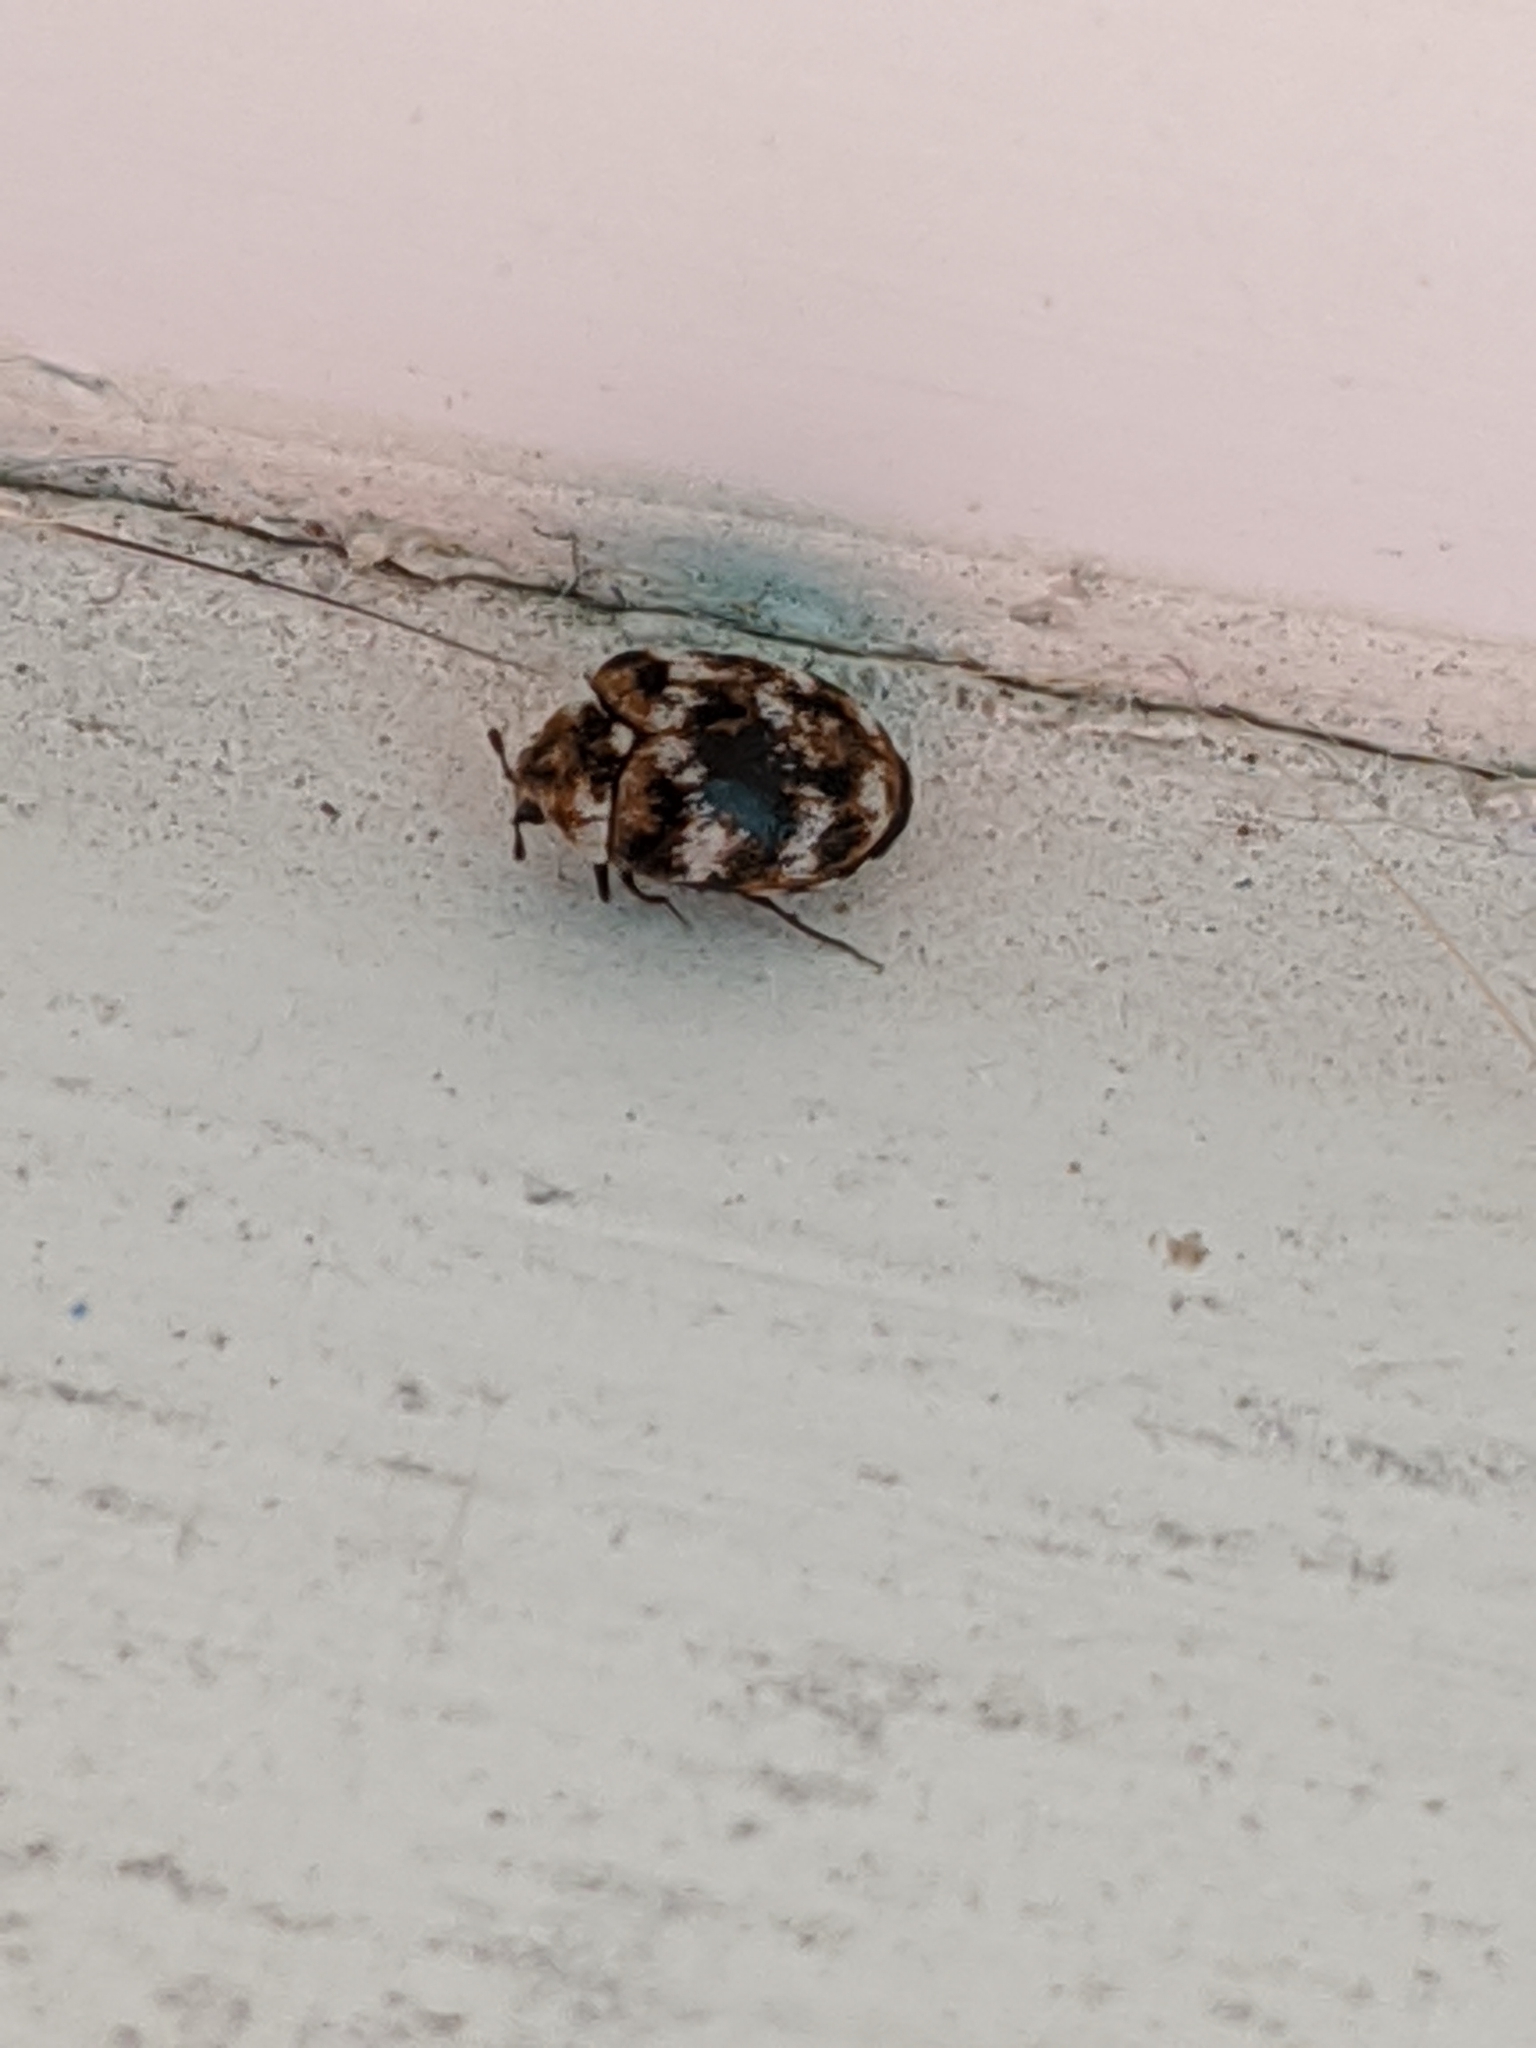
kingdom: Animalia
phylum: Arthropoda
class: Insecta
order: Coleoptera
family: Dermestidae
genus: Anthrenus
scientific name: Anthrenus verbasci
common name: Varied carpet beetle
